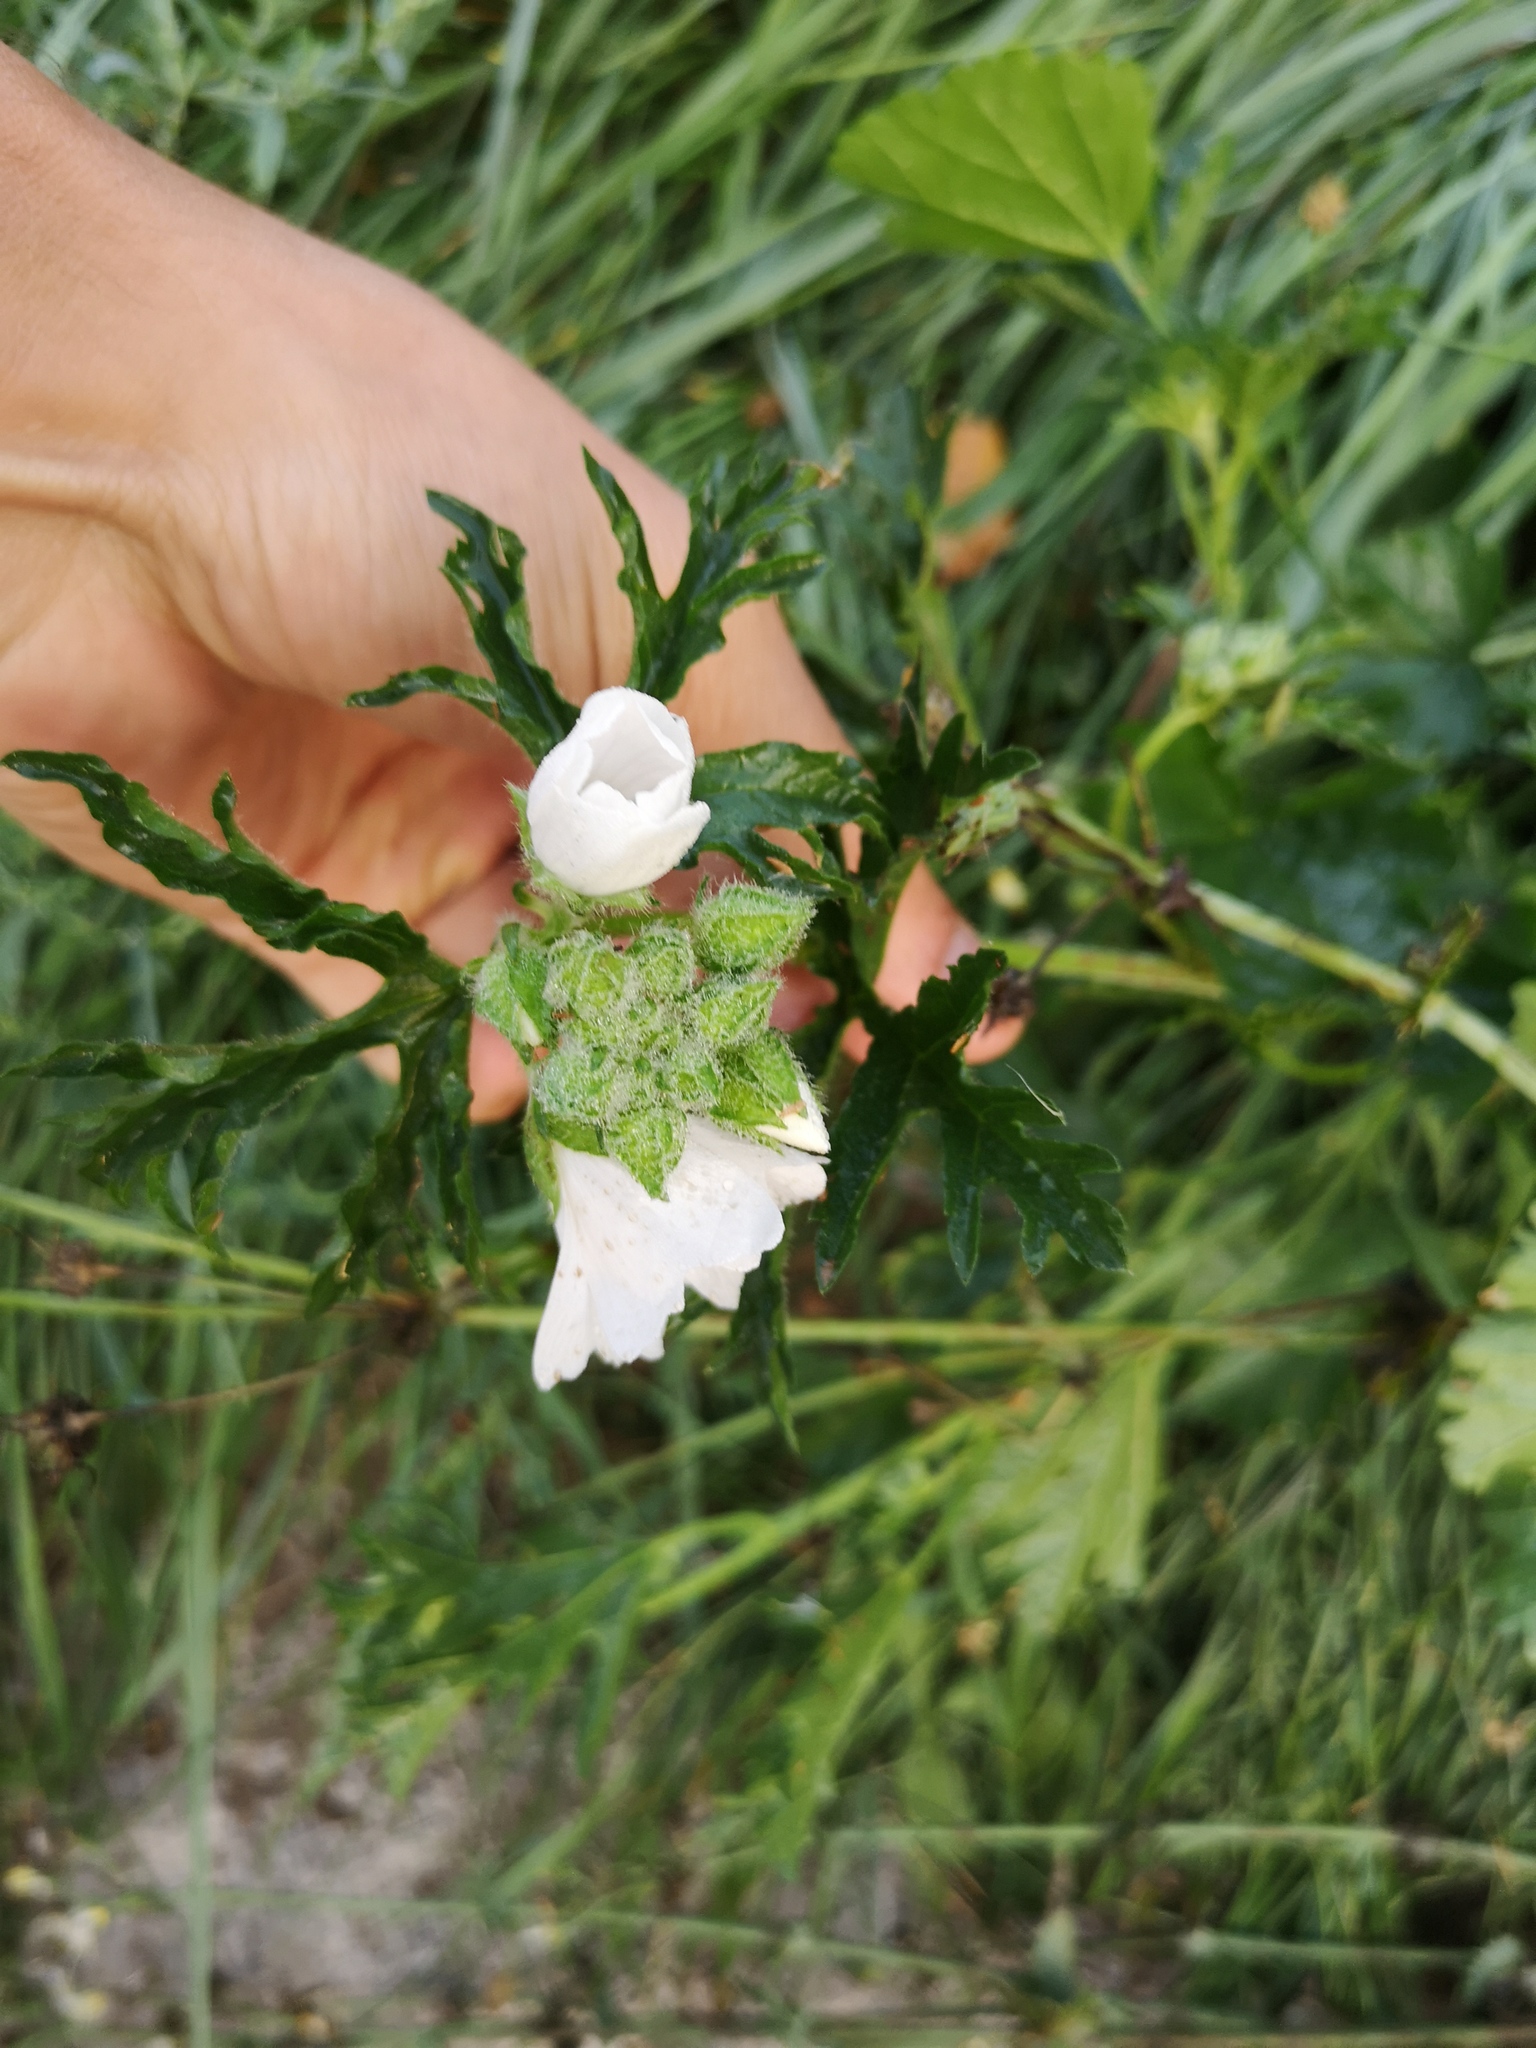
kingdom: Plantae
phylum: Tracheophyta
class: Magnoliopsida
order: Malvales
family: Malvaceae
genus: Malva
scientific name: Malva moschata
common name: Musk mallow
